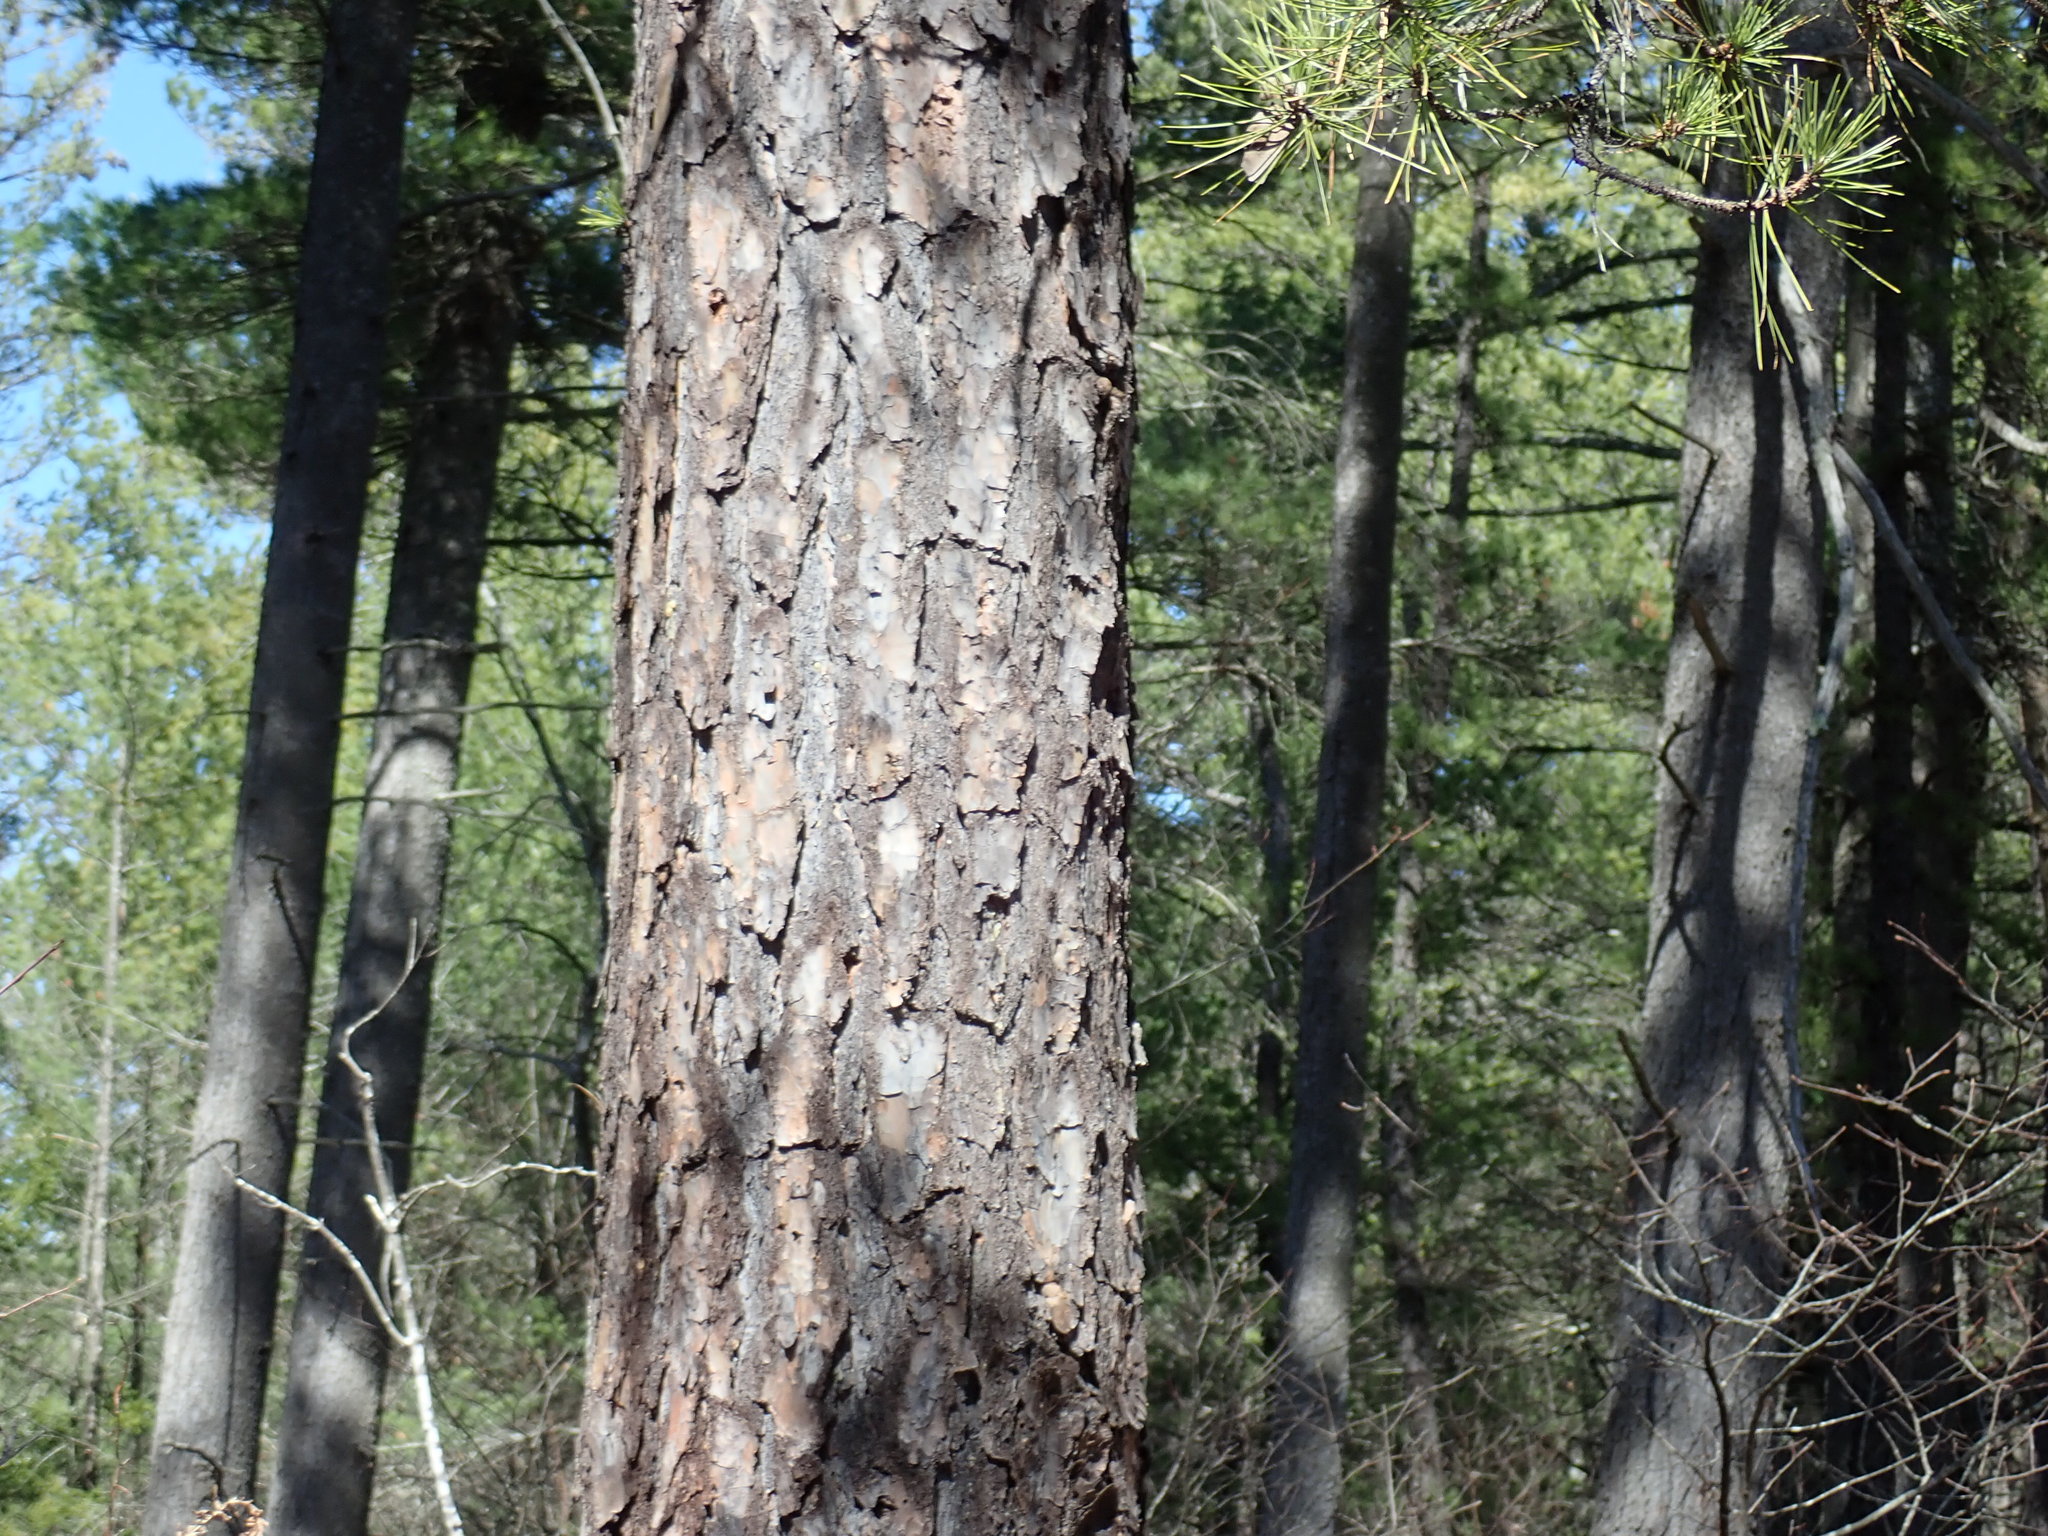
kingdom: Plantae
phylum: Tracheophyta
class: Pinopsida
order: Pinales
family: Pinaceae
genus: Pinus
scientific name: Pinus rigida
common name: Pitch pine
